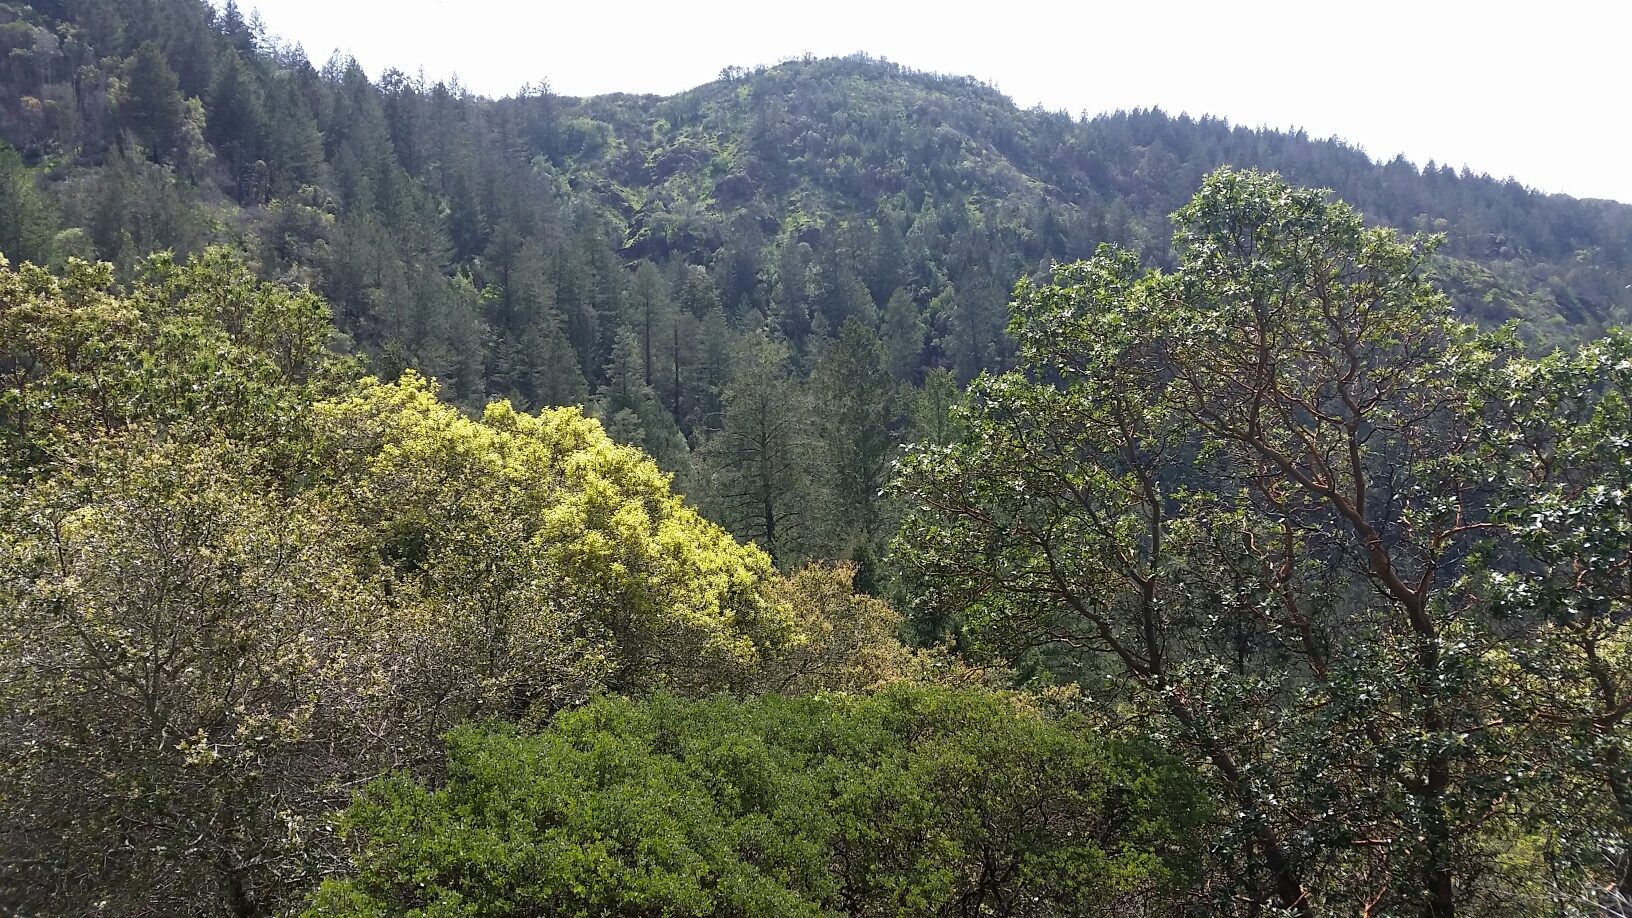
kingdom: Plantae
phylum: Tracheophyta
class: Magnoliopsida
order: Ericales
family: Ericaceae
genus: Arbutus
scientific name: Arbutus menziesii
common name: Pacific madrone
